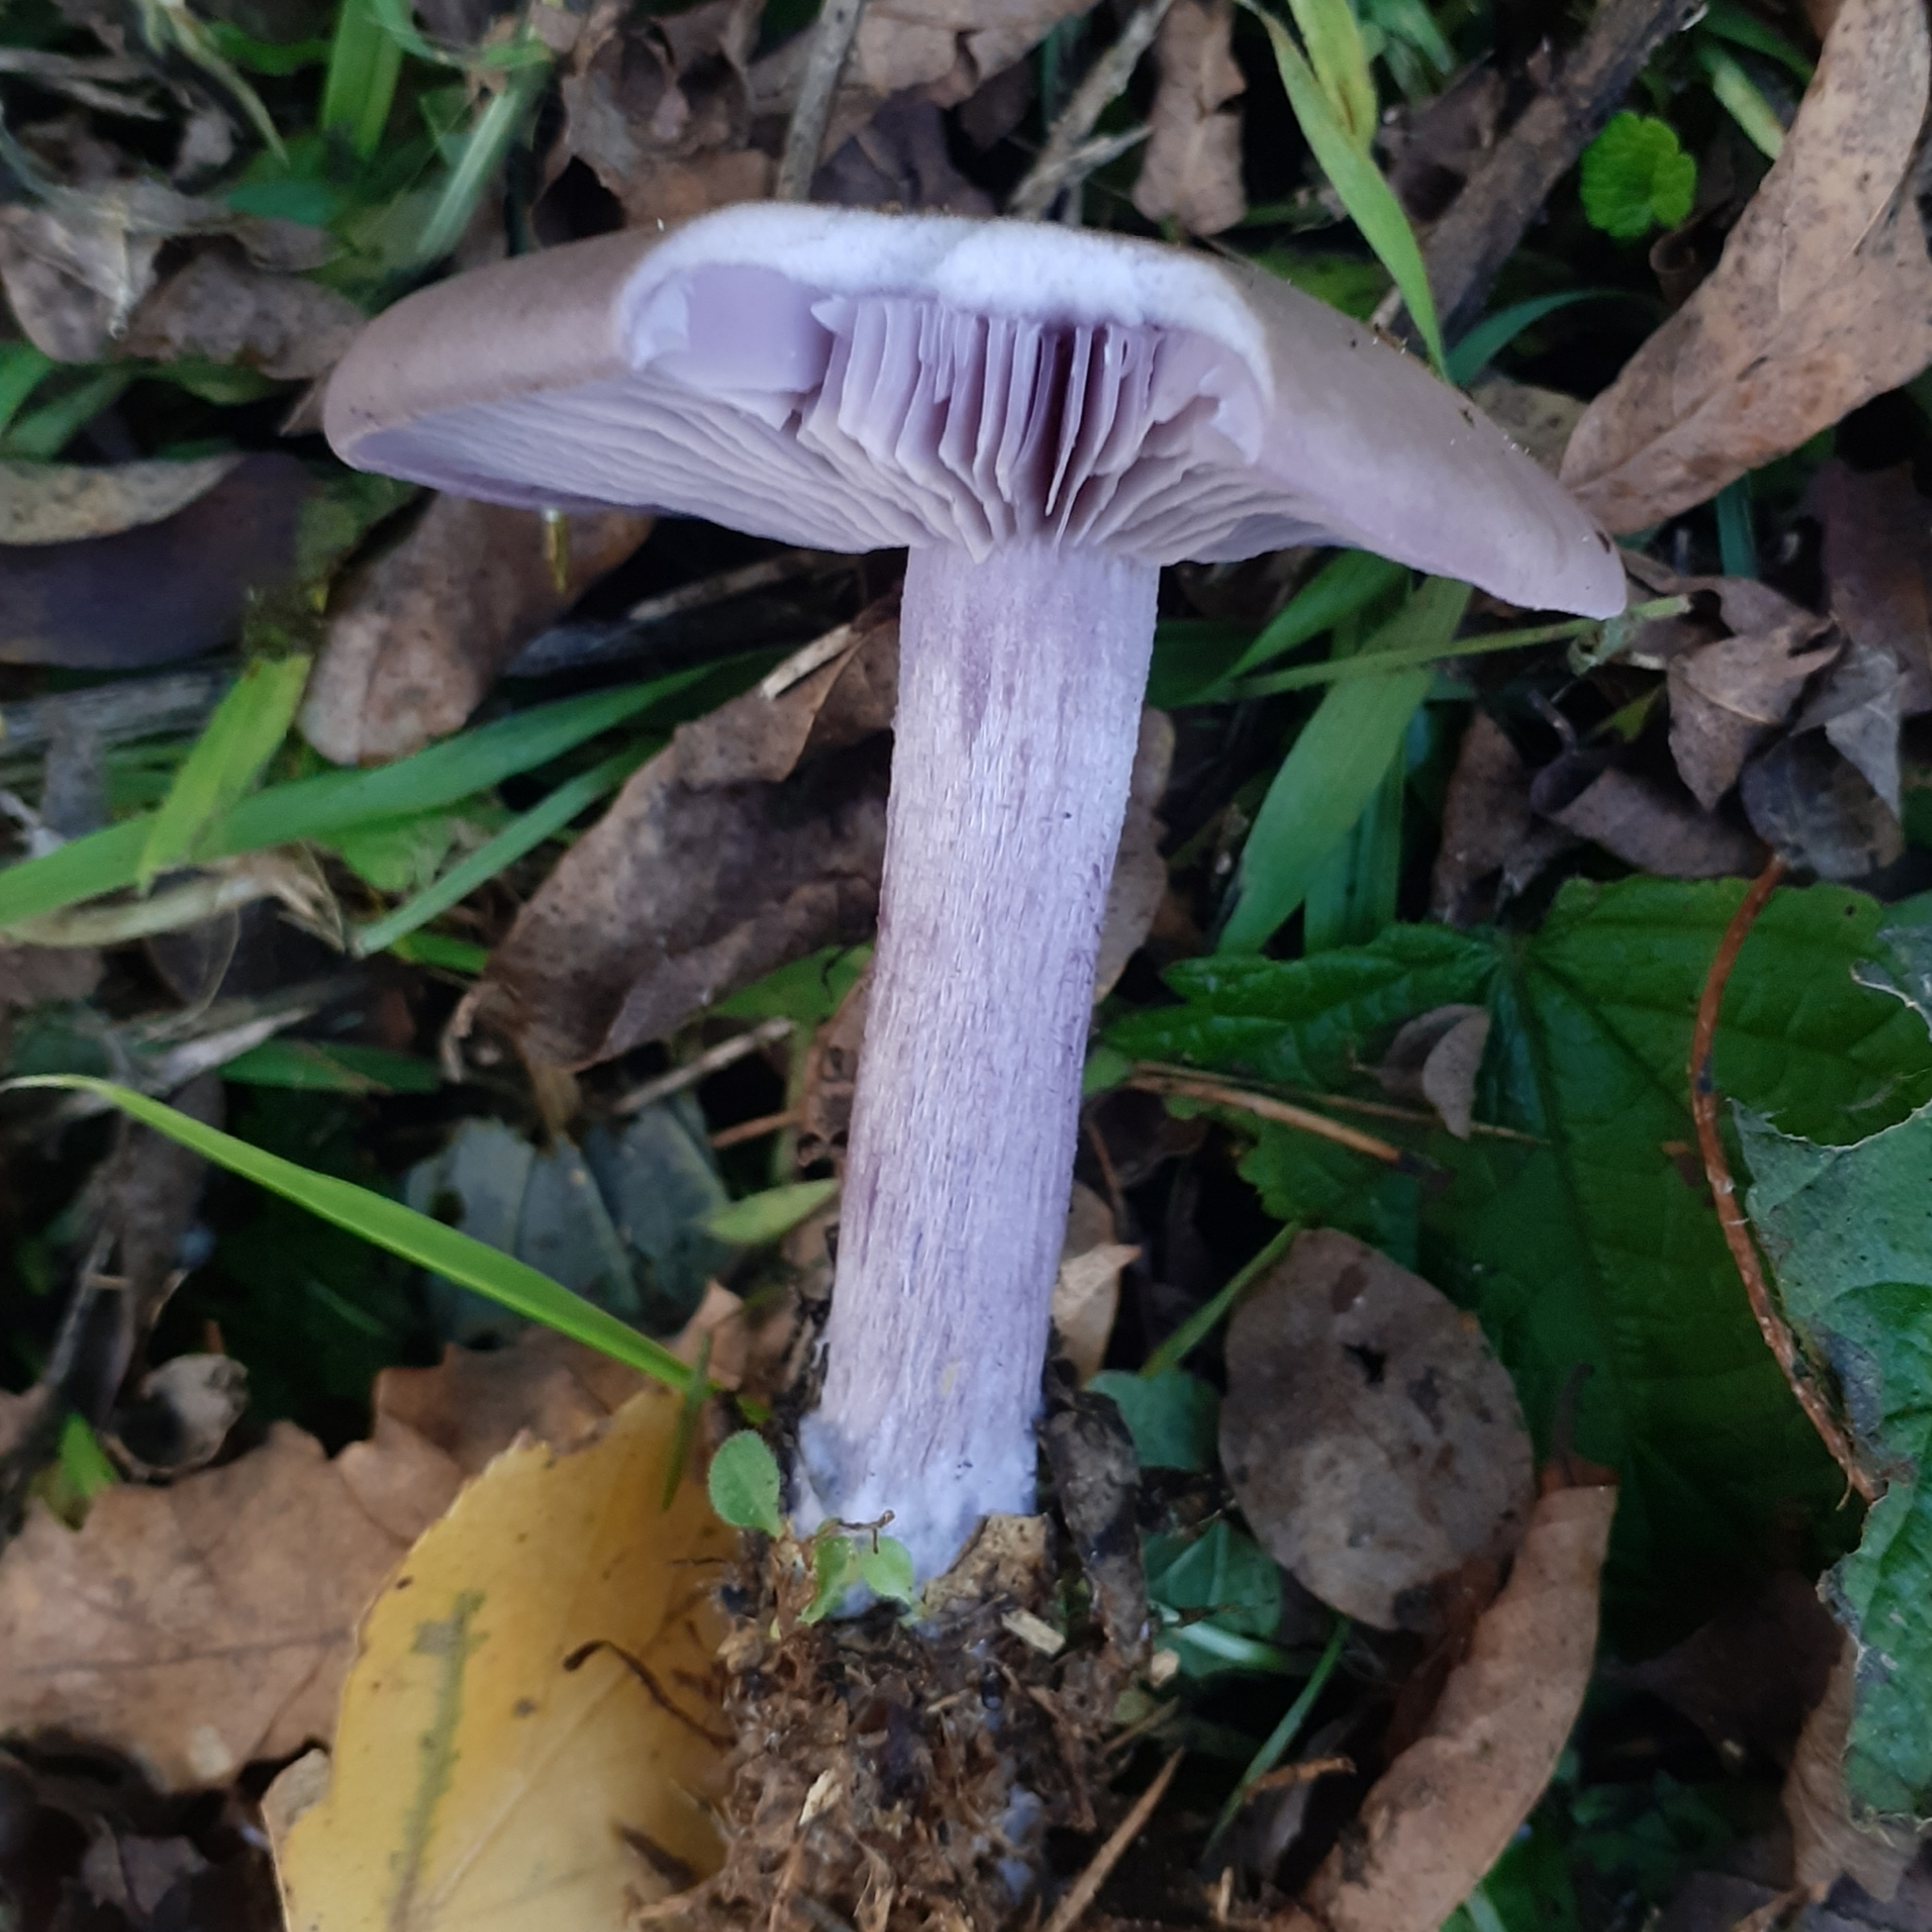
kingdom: Fungi
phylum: Basidiomycota
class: Agaricomycetes
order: Agaricales
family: Tricholomataceae
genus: Collybia
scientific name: Collybia
